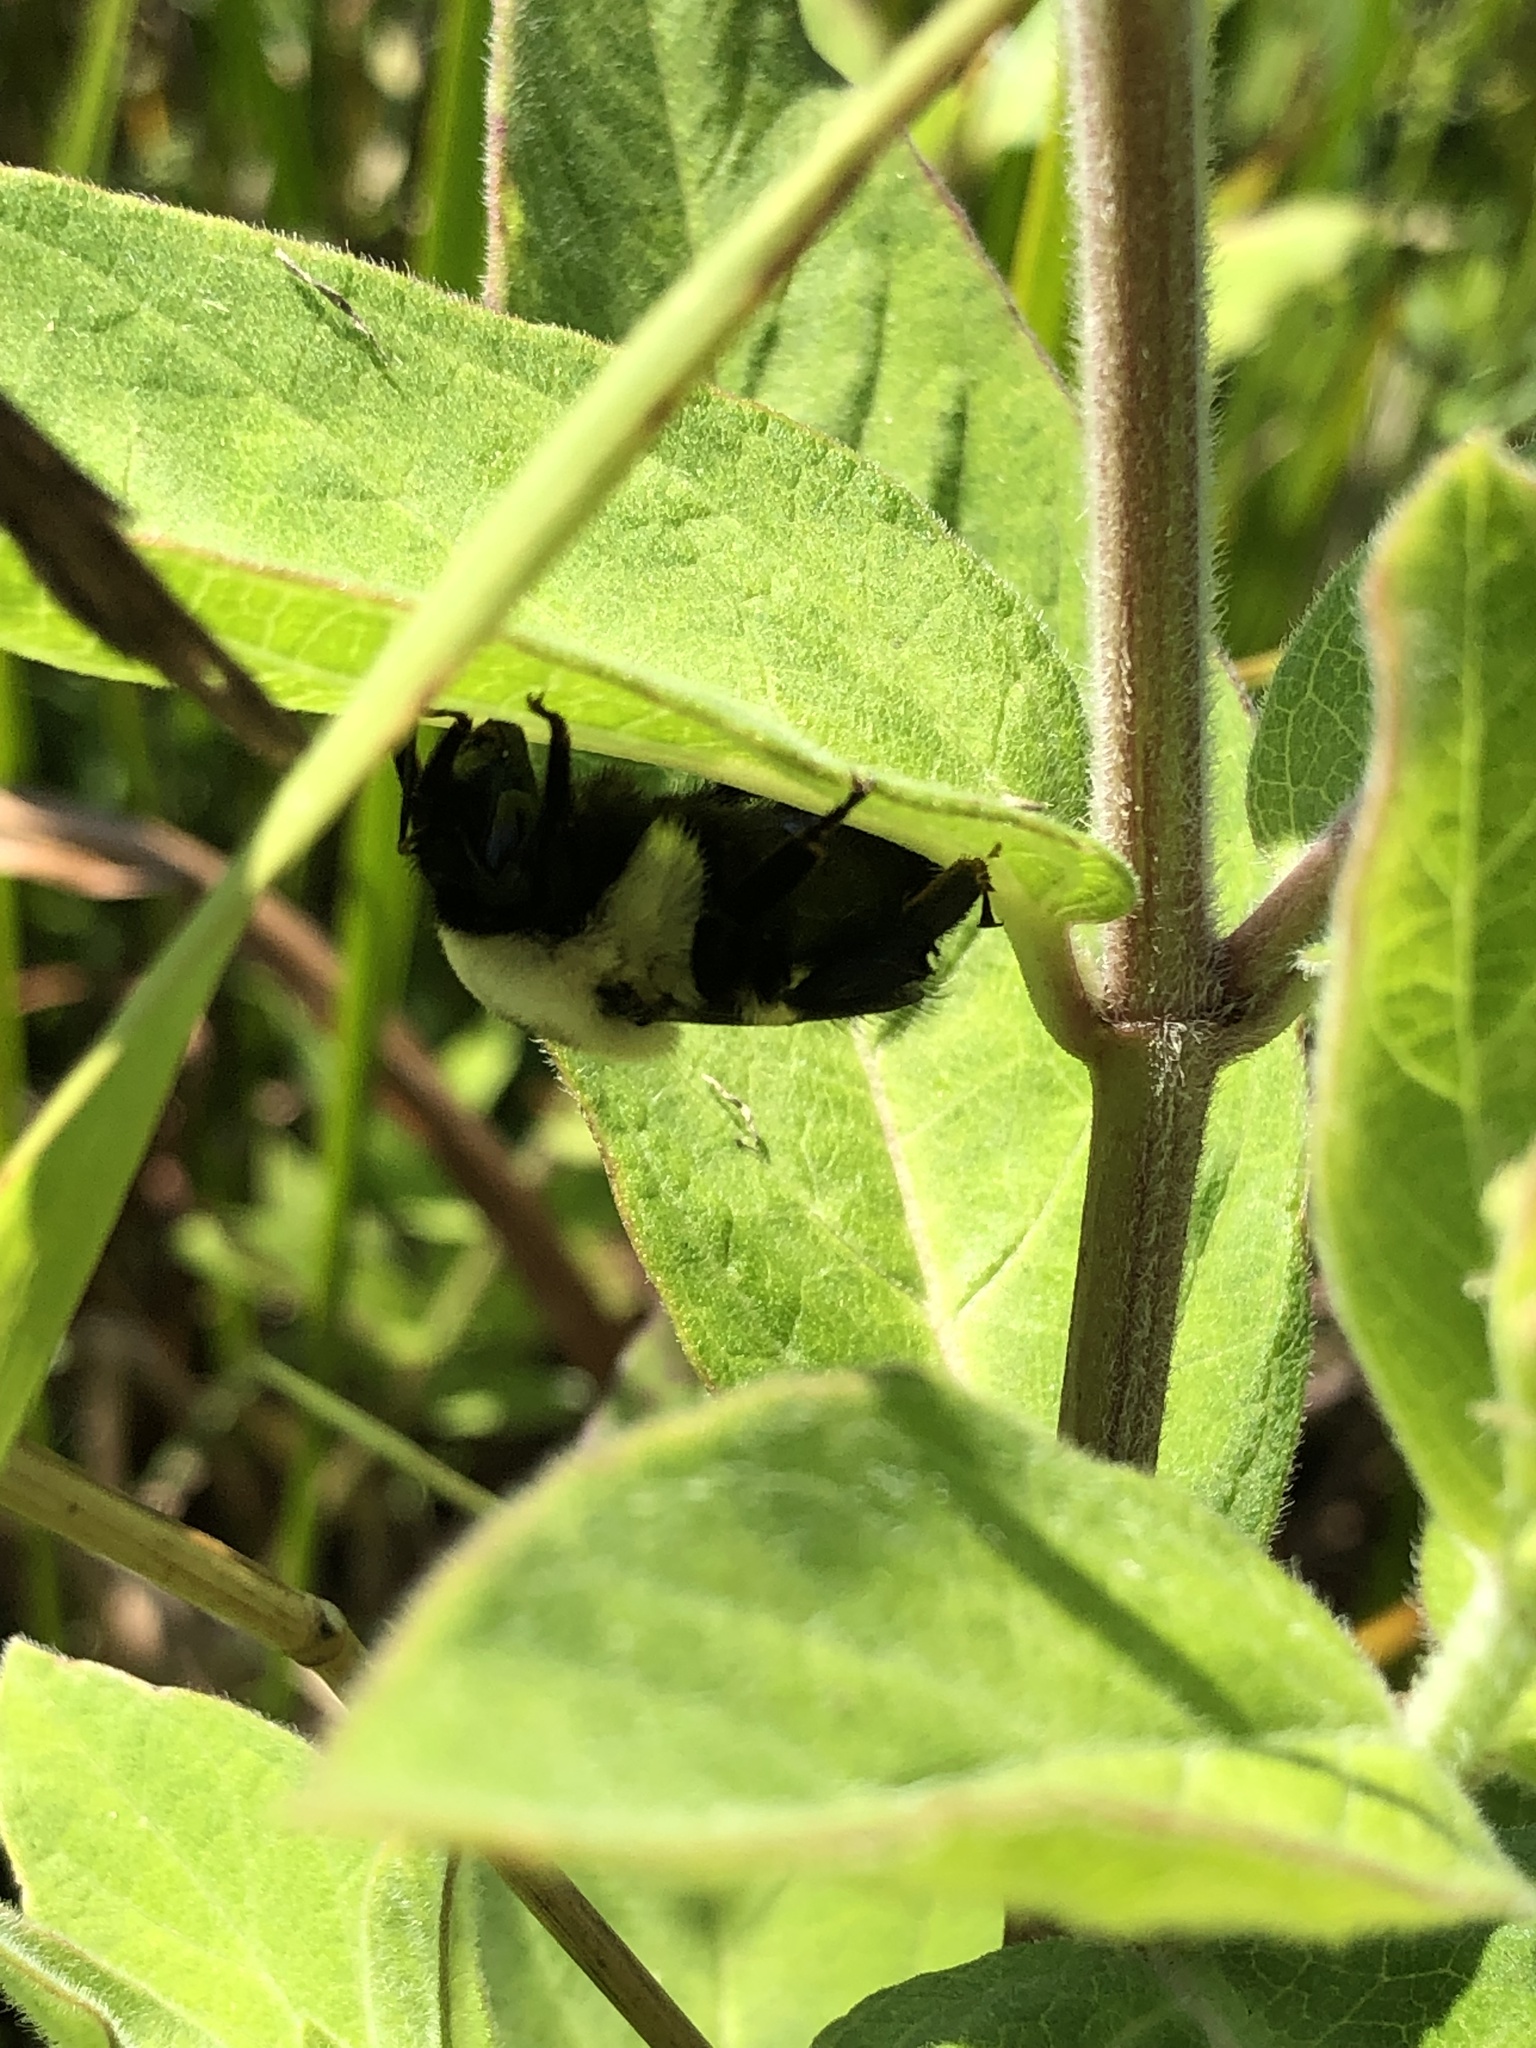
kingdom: Animalia
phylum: Arthropoda
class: Insecta
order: Hymenoptera
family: Apidae
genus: Bombus
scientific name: Bombus griseocollis
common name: Brown-belted bumble bee
